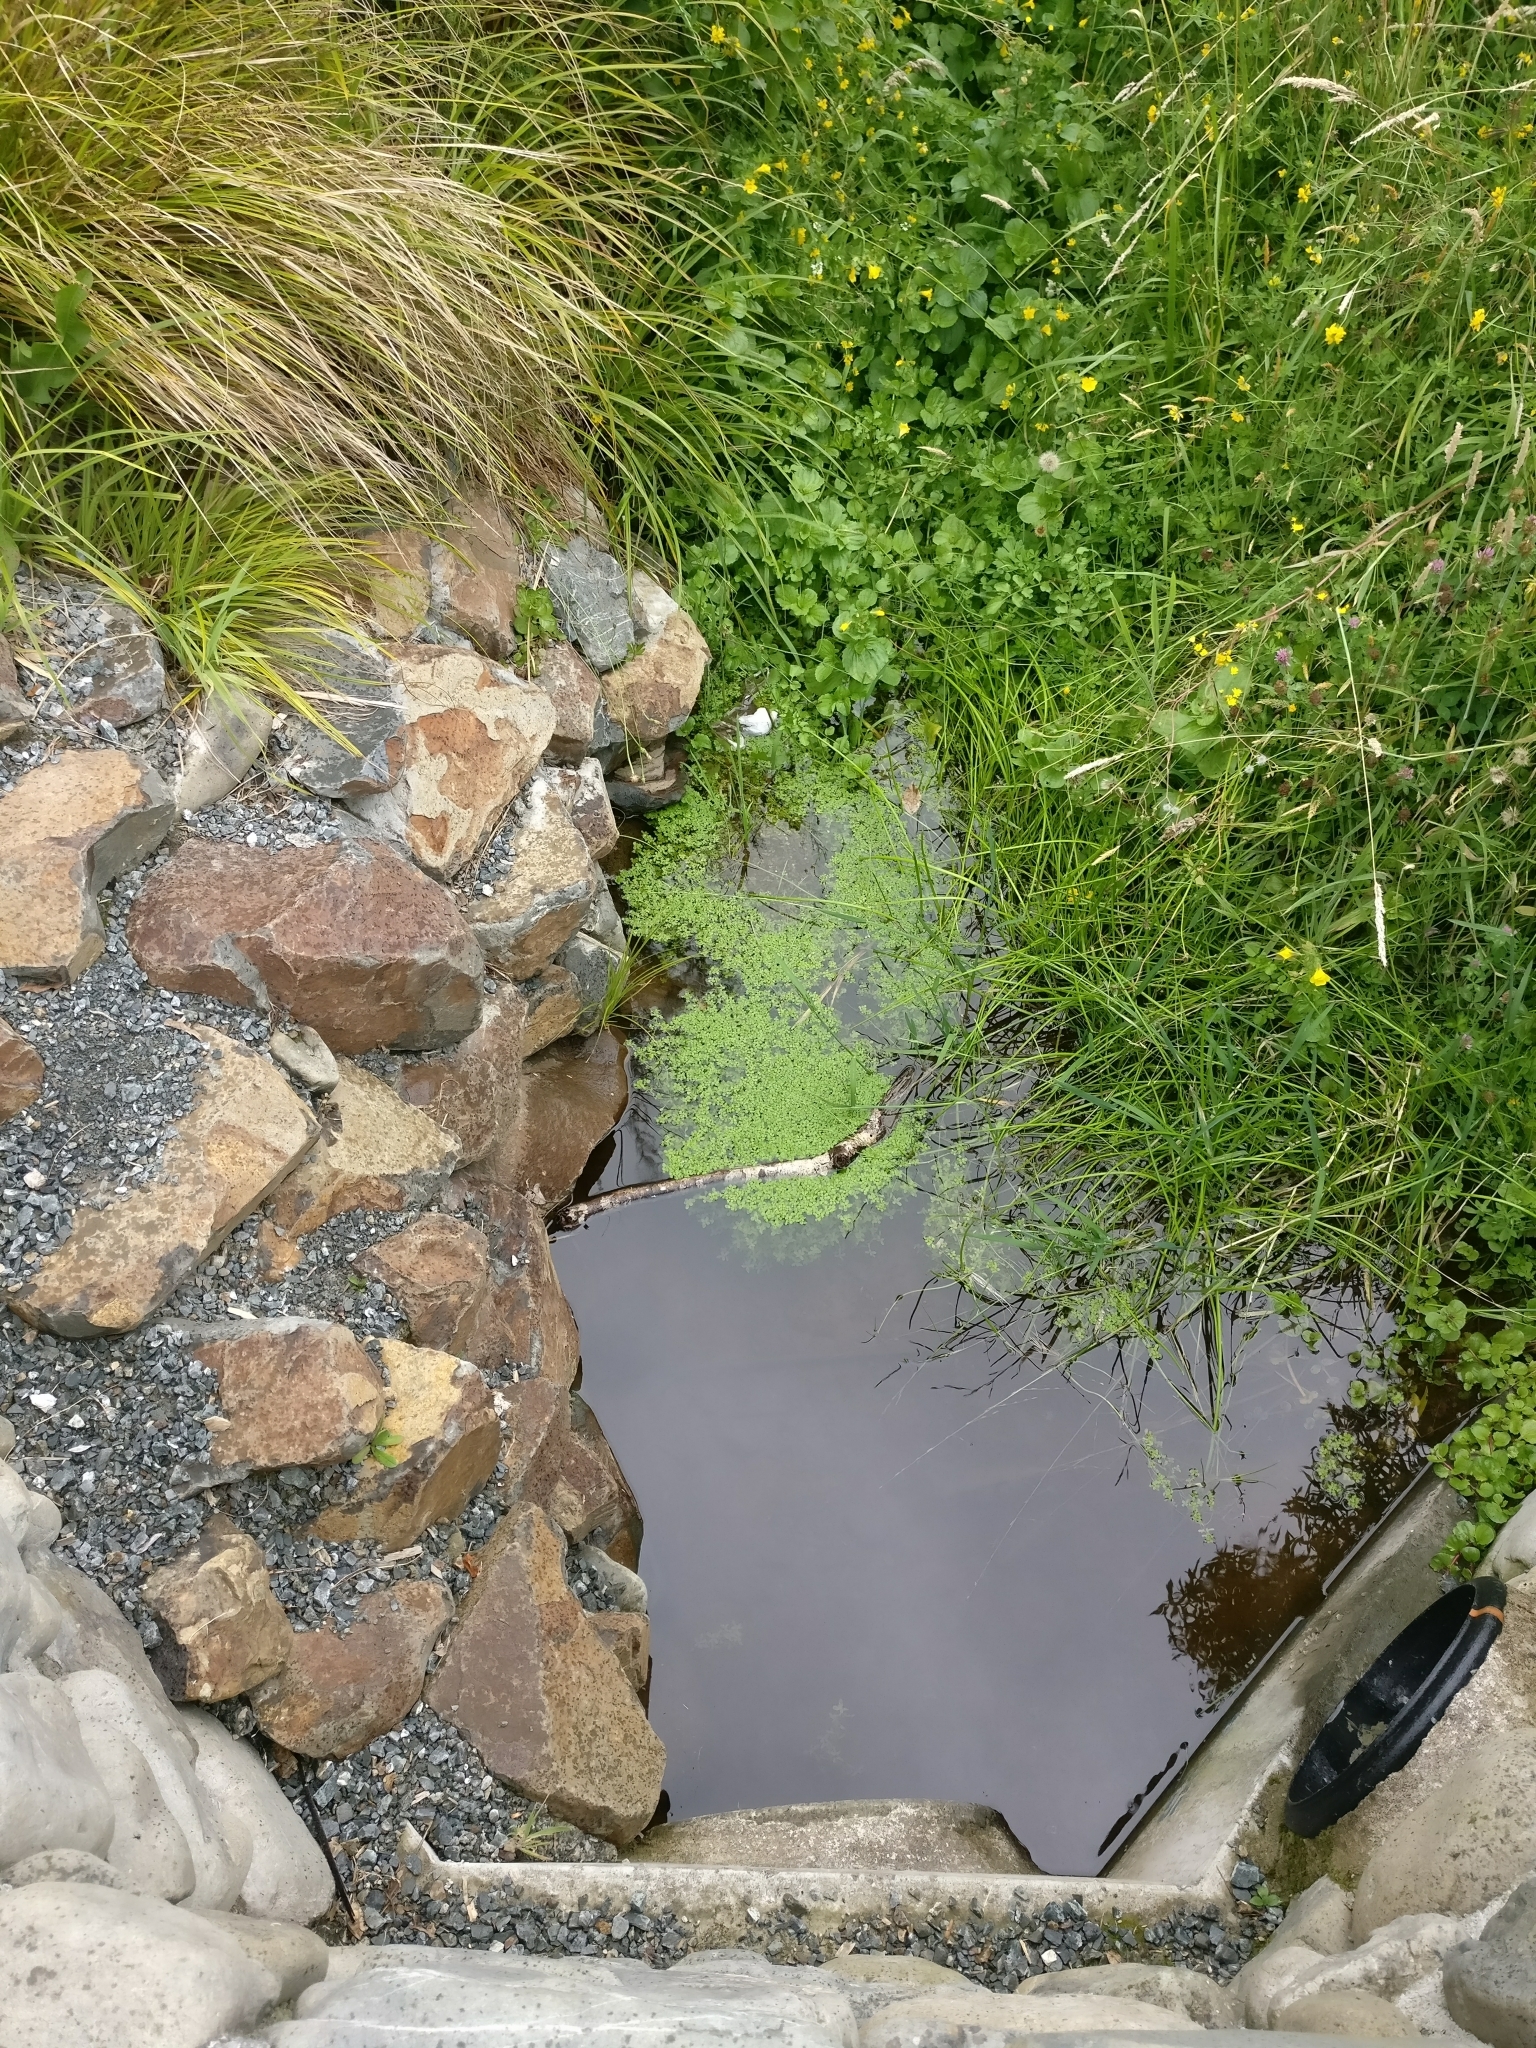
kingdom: Plantae
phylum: Tracheophyta
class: Magnoliopsida
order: Lamiales
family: Plantaginaceae
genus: Callitriche
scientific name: Callitriche stagnalis
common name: Common water-starwort
